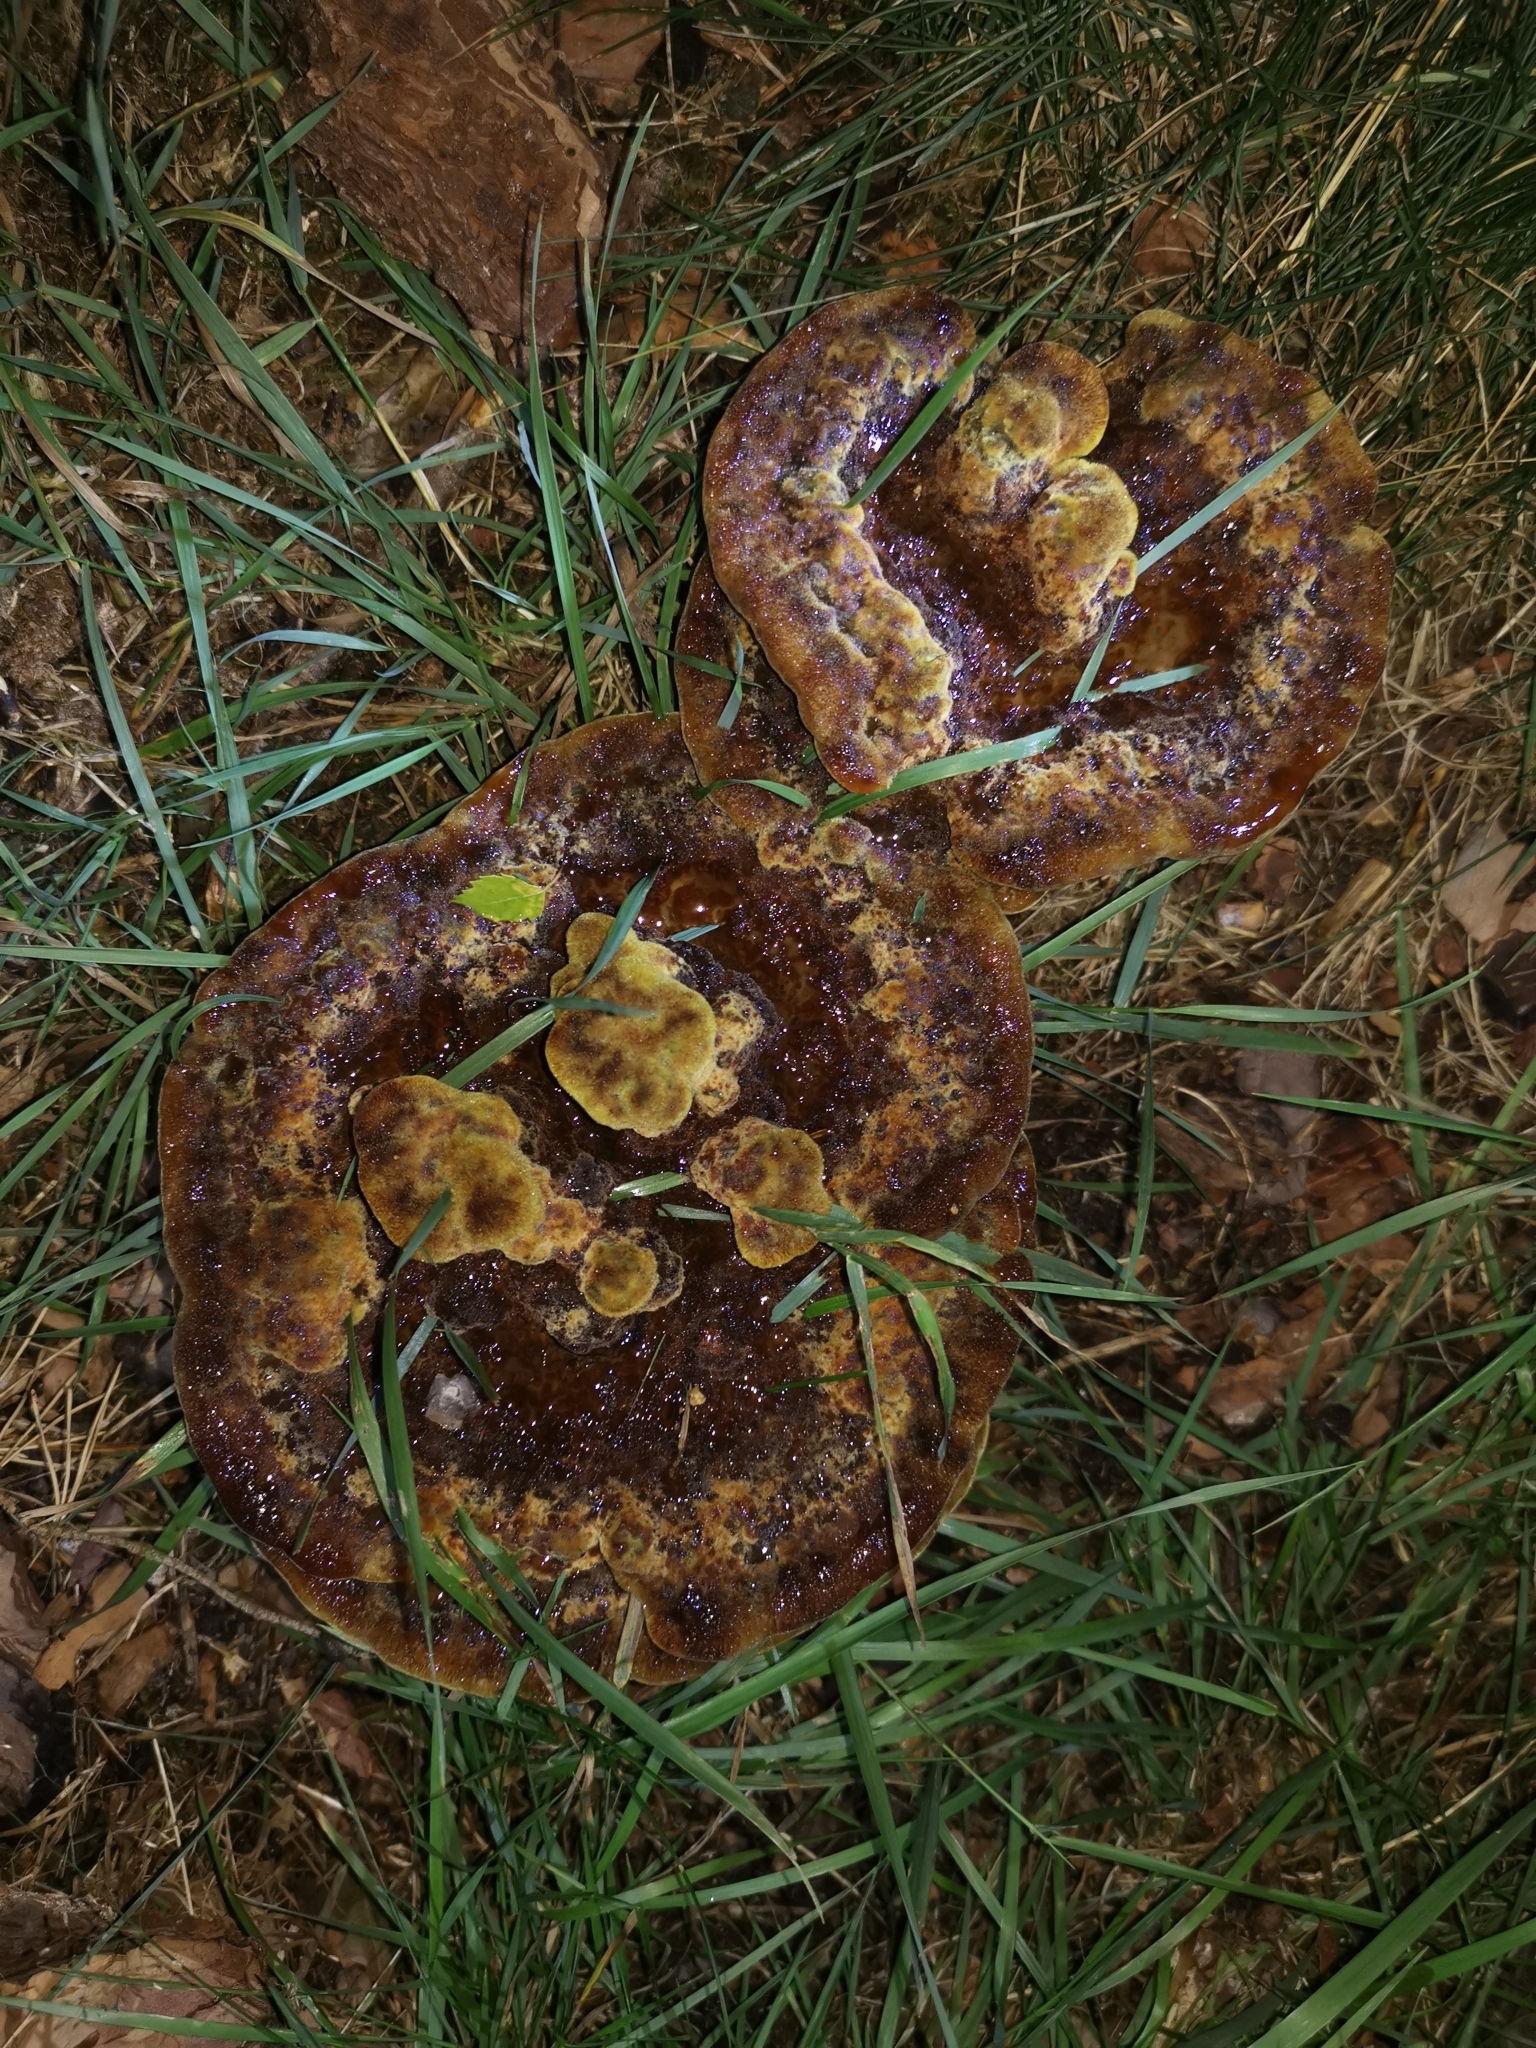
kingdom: Fungi
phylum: Basidiomycota
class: Agaricomycetes
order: Polyporales
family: Laetiporaceae
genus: Phaeolus
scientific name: Phaeolus schweinitzii
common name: Dyer's mazegill
